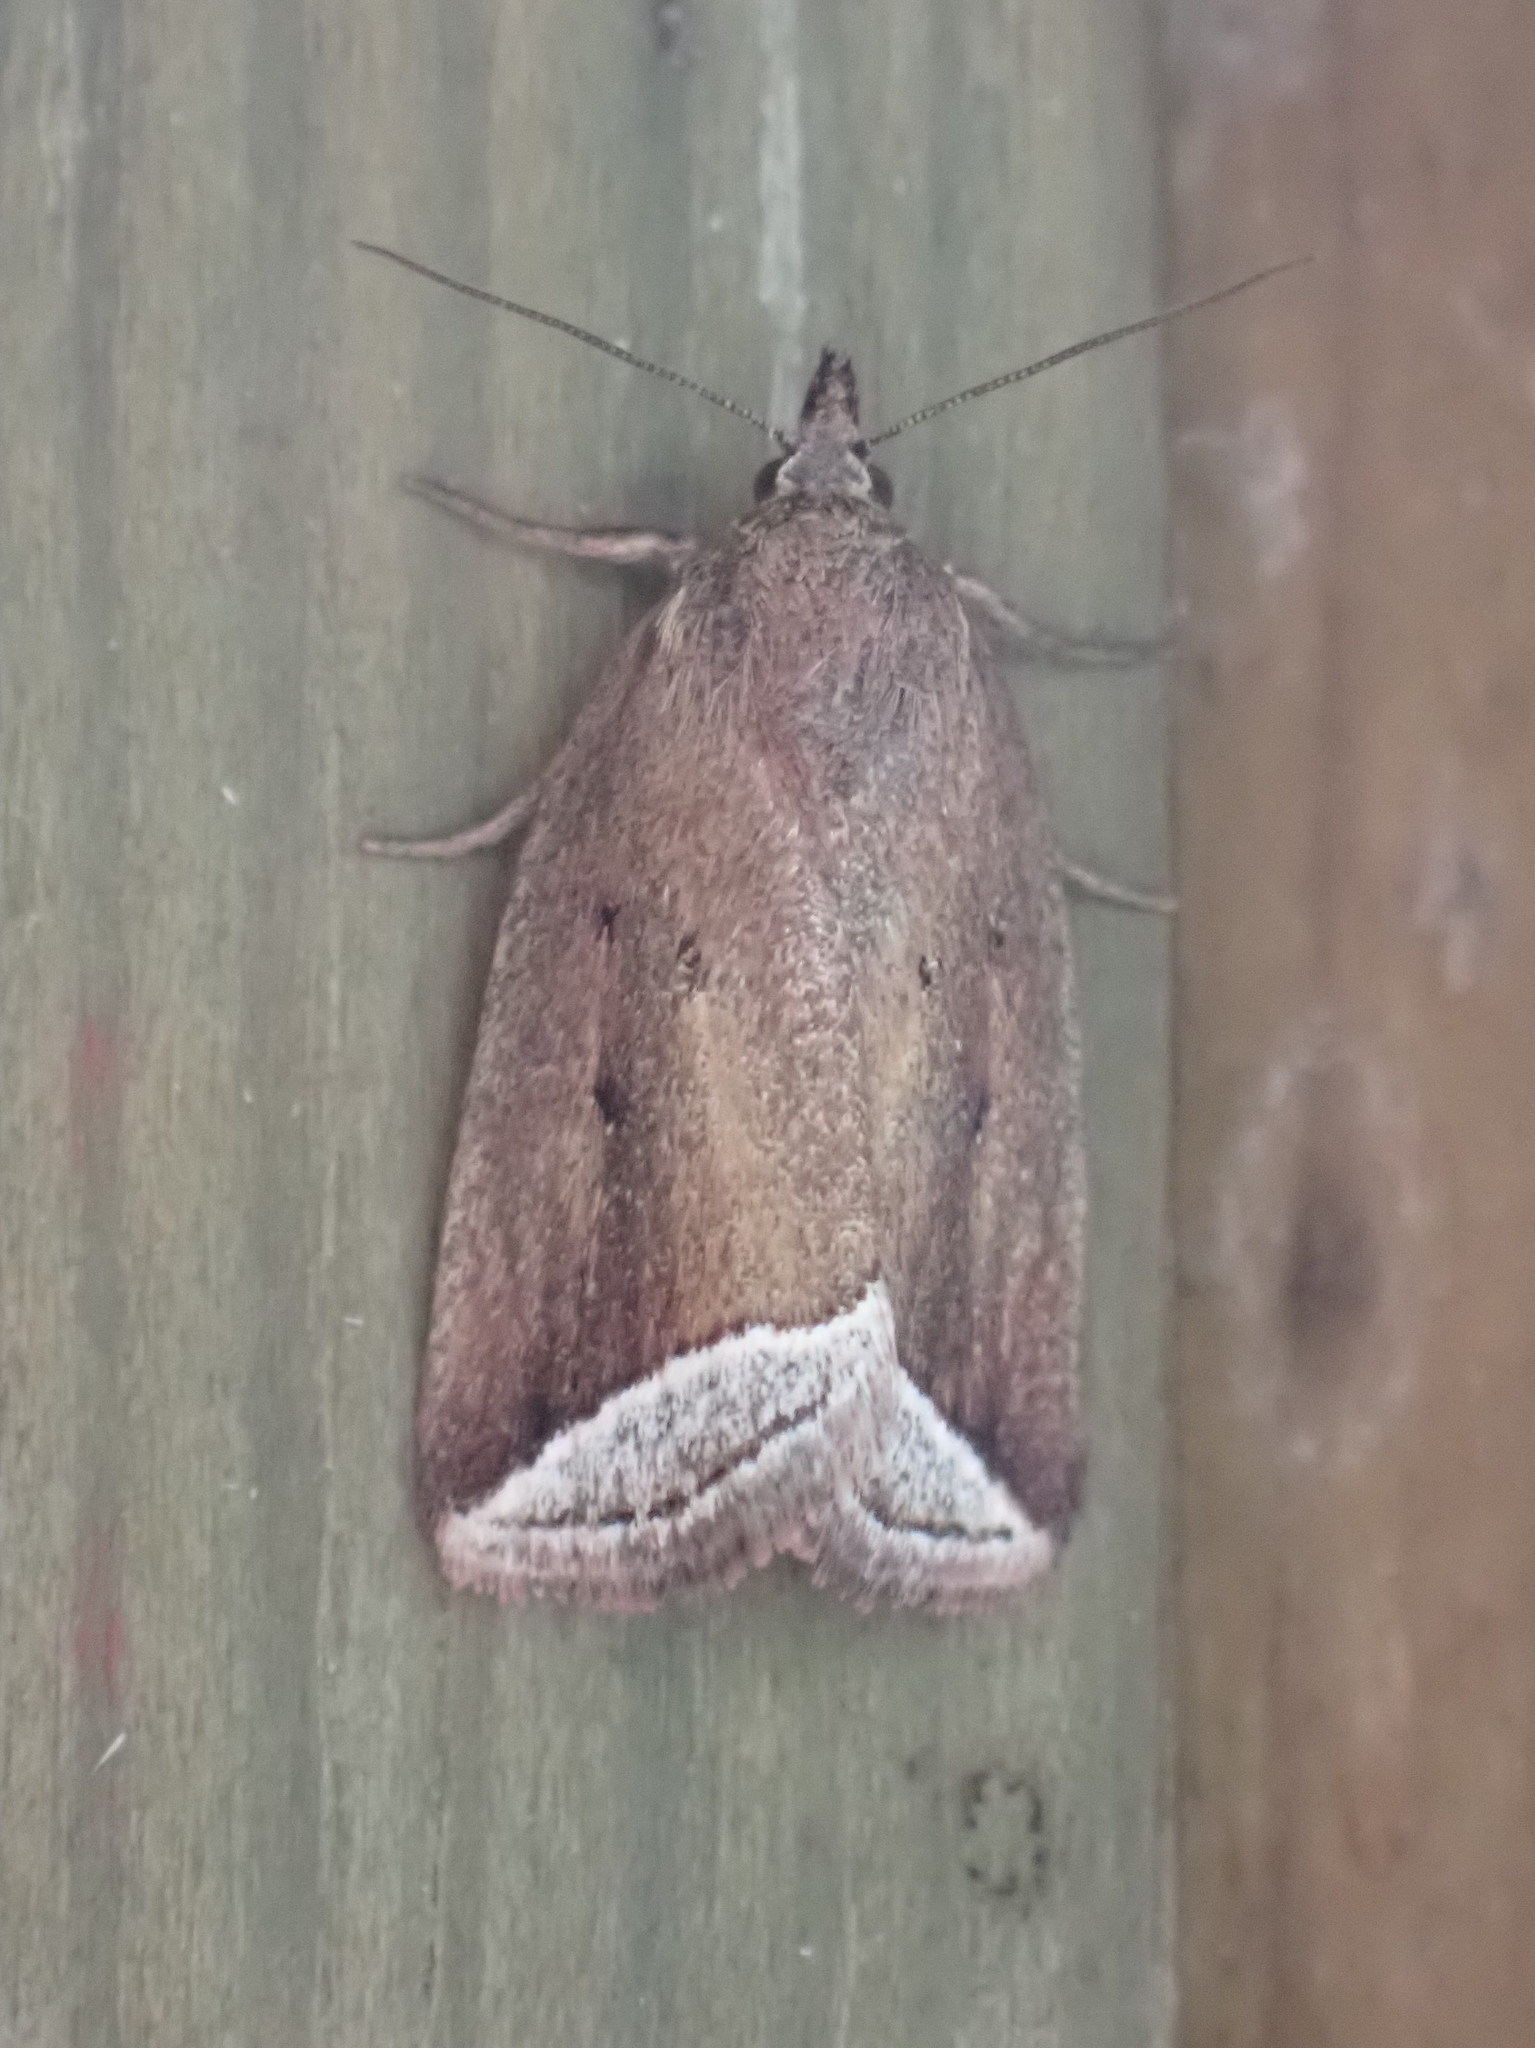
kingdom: Animalia
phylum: Arthropoda
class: Insecta
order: Lepidoptera
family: Erebidae
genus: Capis
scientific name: Capis curvata
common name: Curved halter moth
